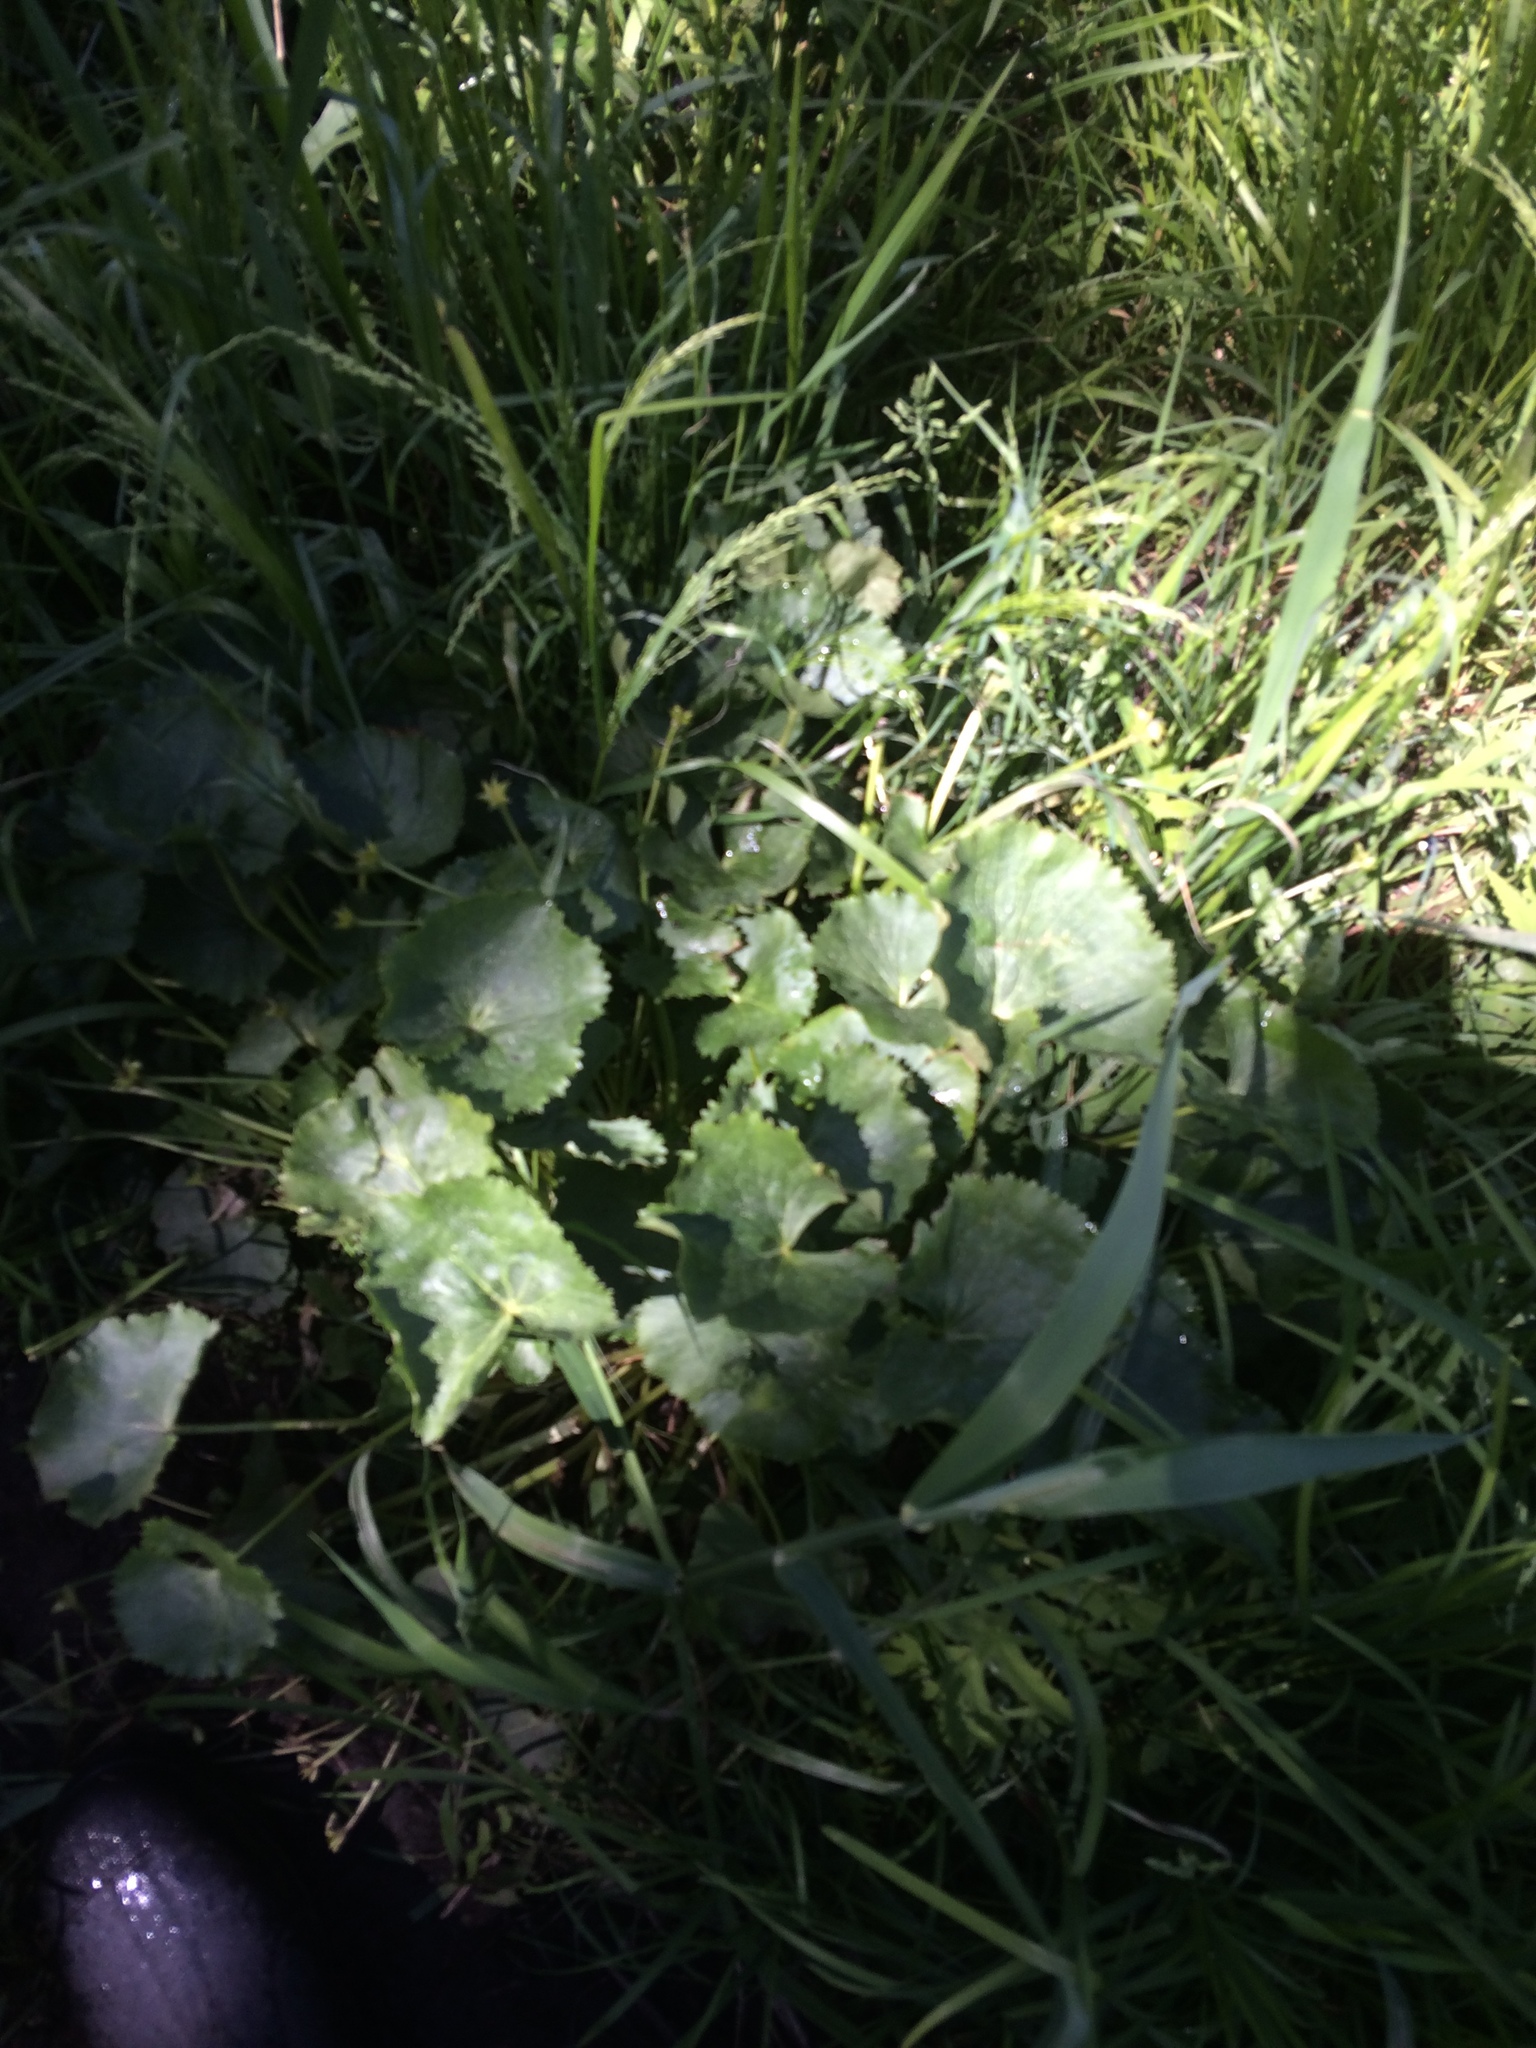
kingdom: Plantae
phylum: Tracheophyta
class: Magnoliopsida
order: Ranunculales
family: Ranunculaceae
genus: Caltha
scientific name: Caltha palustris
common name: Marsh marigold
